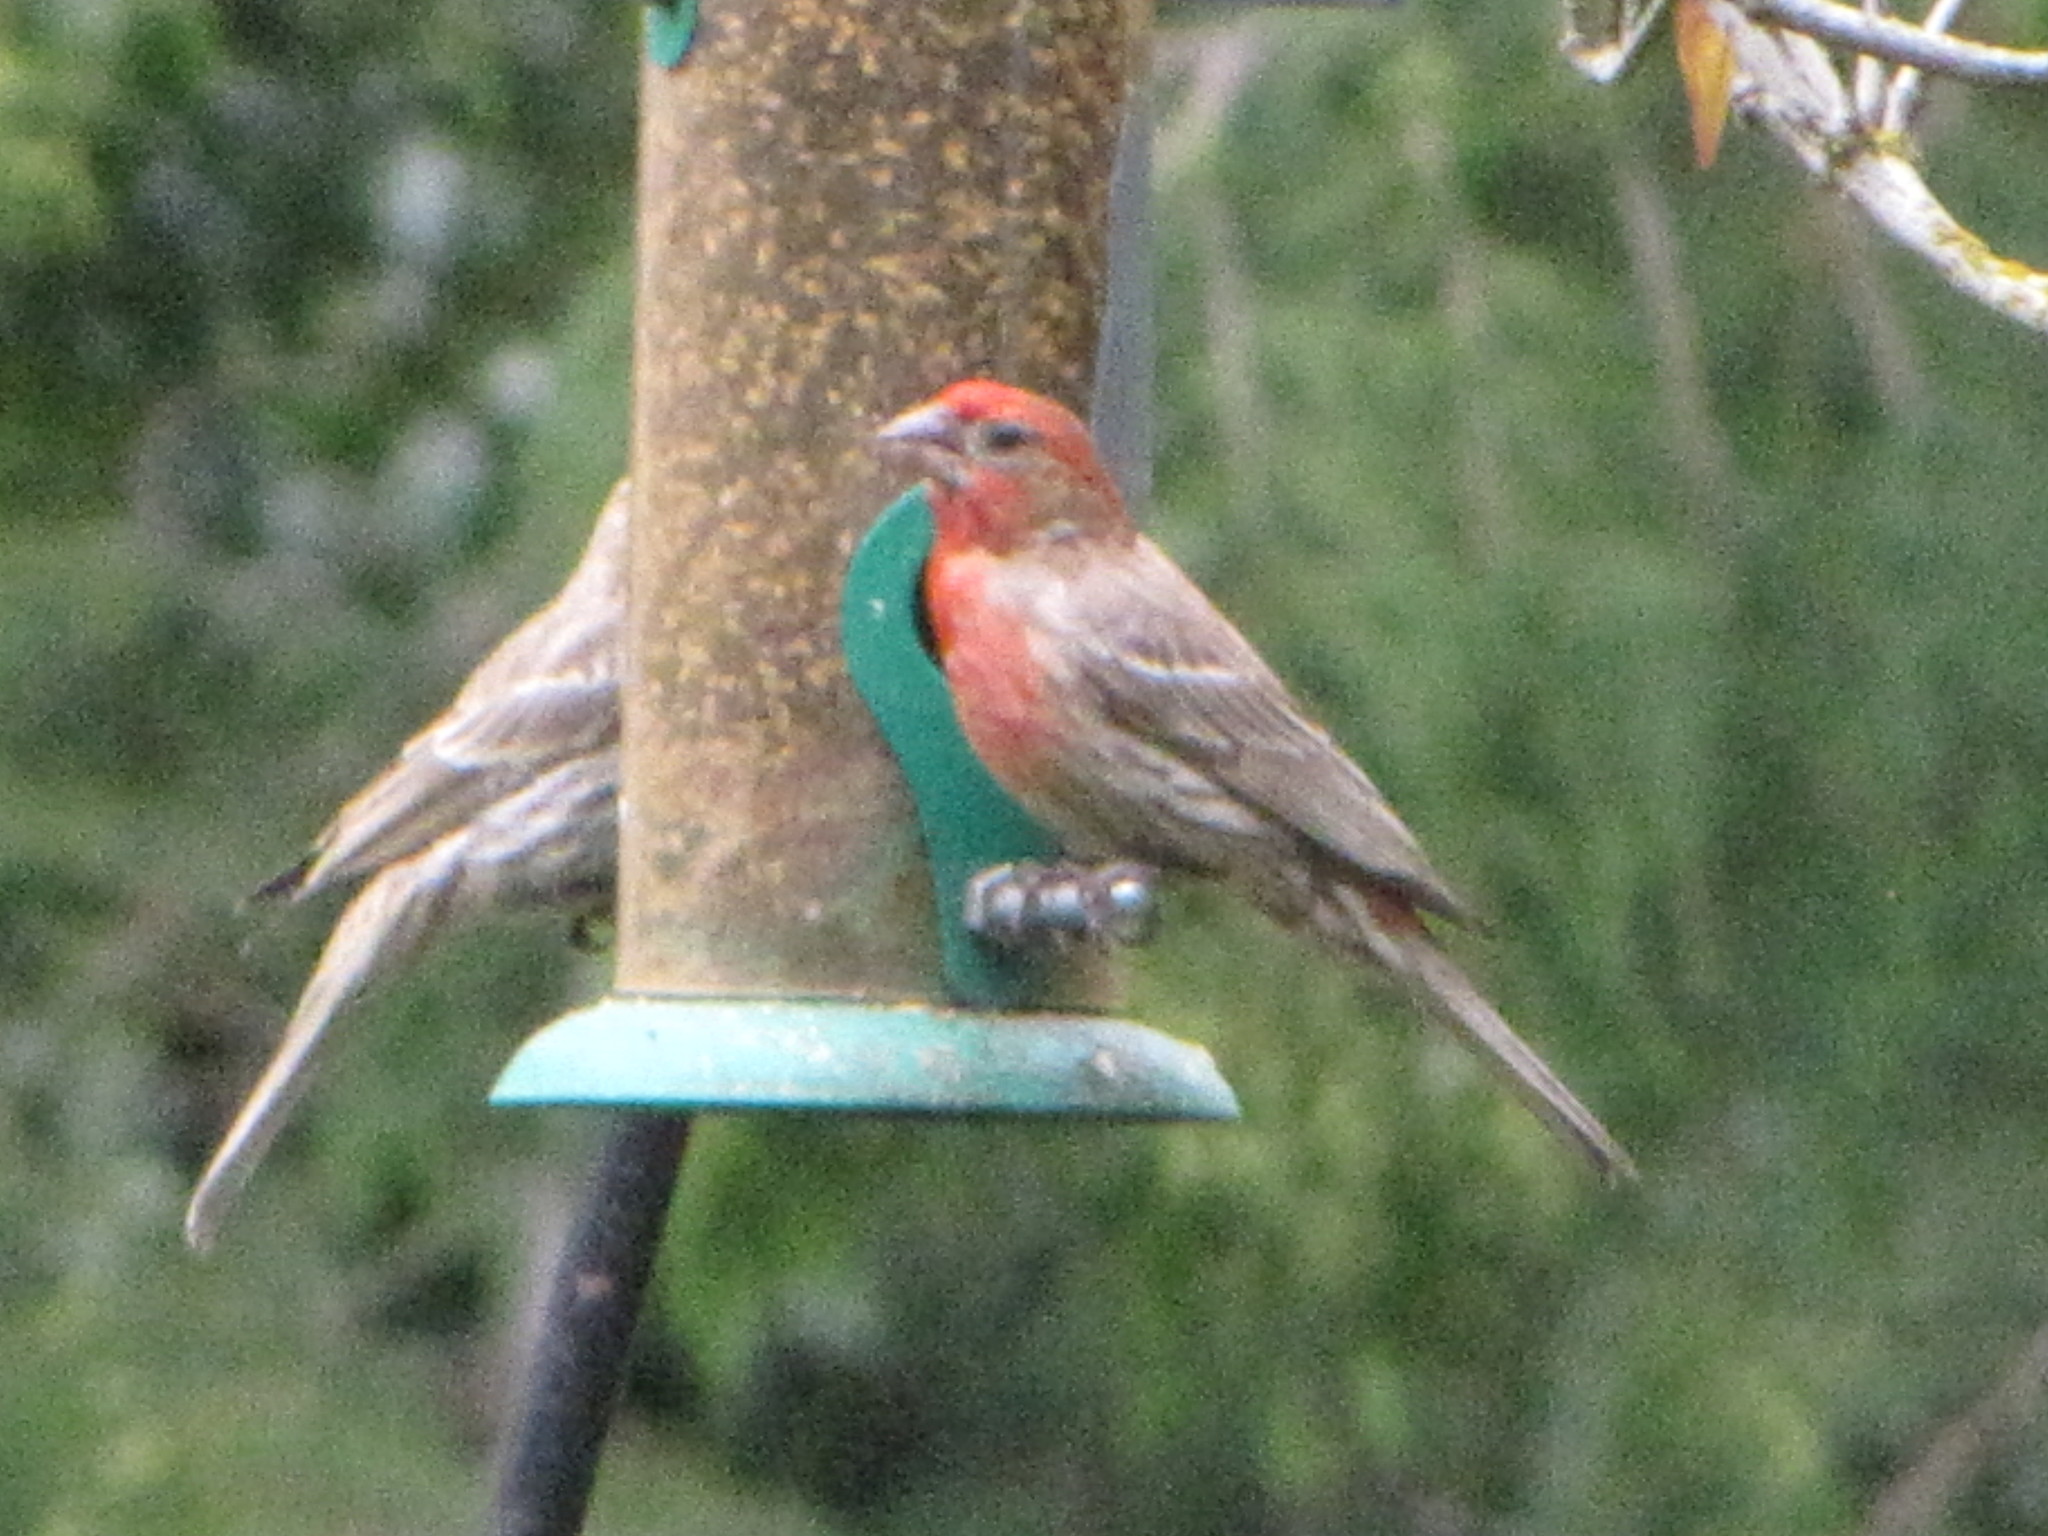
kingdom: Animalia
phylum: Chordata
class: Aves
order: Passeriformes
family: Fringillidae
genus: Haemorhous
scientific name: Haemorhous mexicanus
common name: House finch
